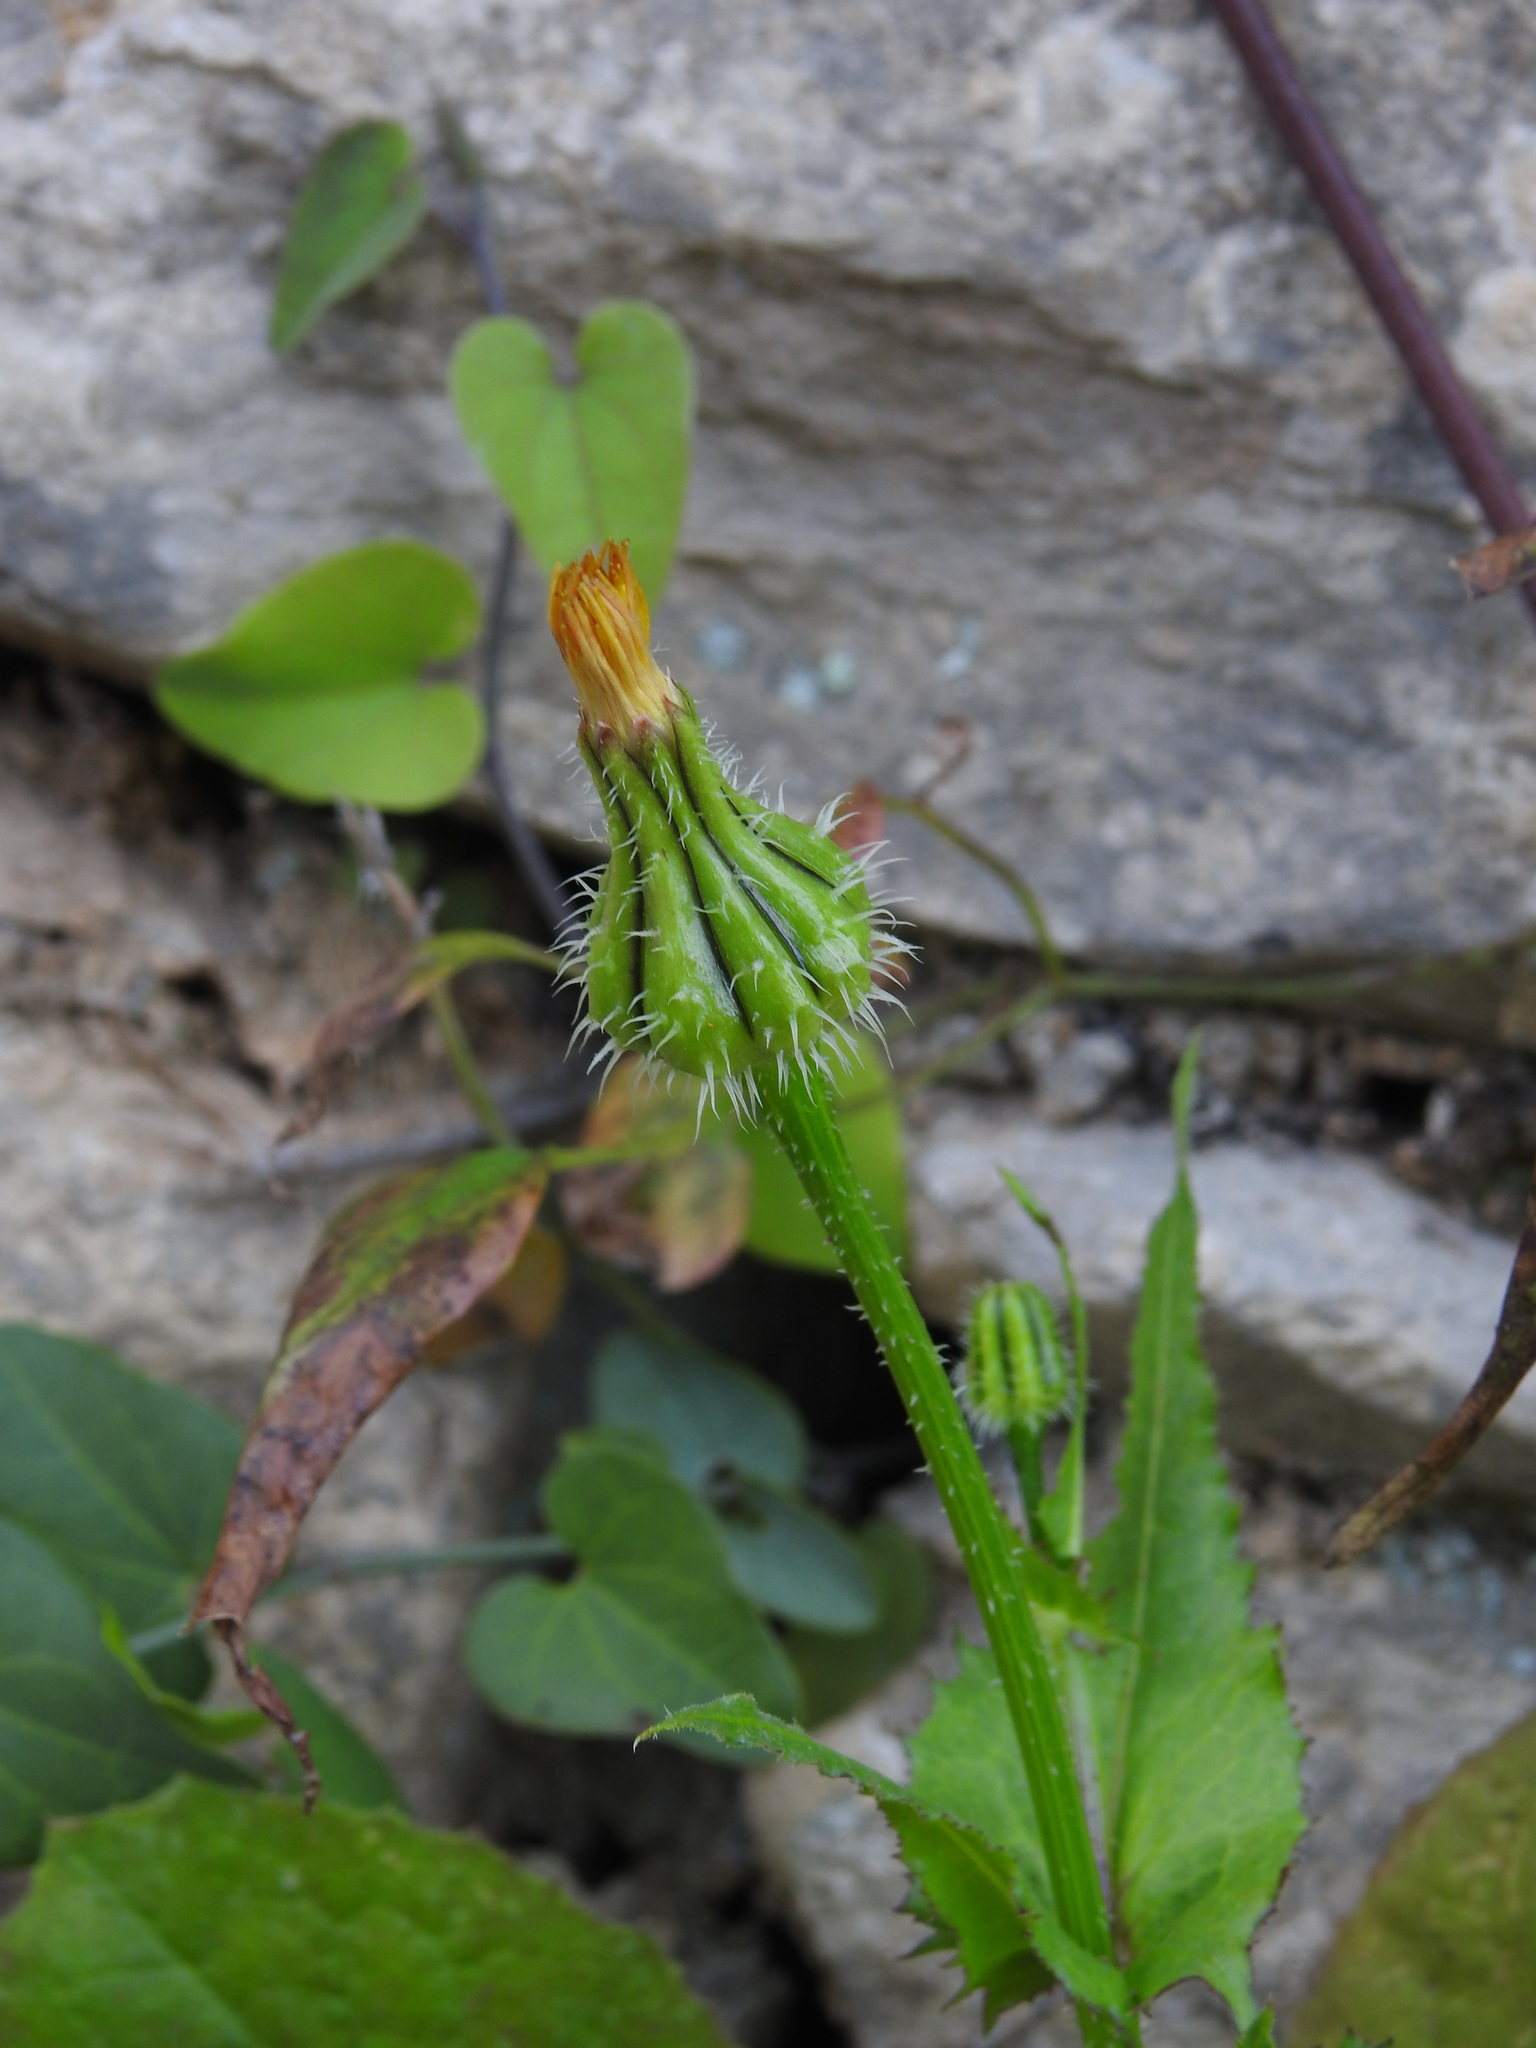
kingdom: Plantae
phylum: Tracheophyta
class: Magnoliopsida
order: Asterales
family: Asteraceae
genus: Urospermum
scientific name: Urospermum picroides
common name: False hawkbit
